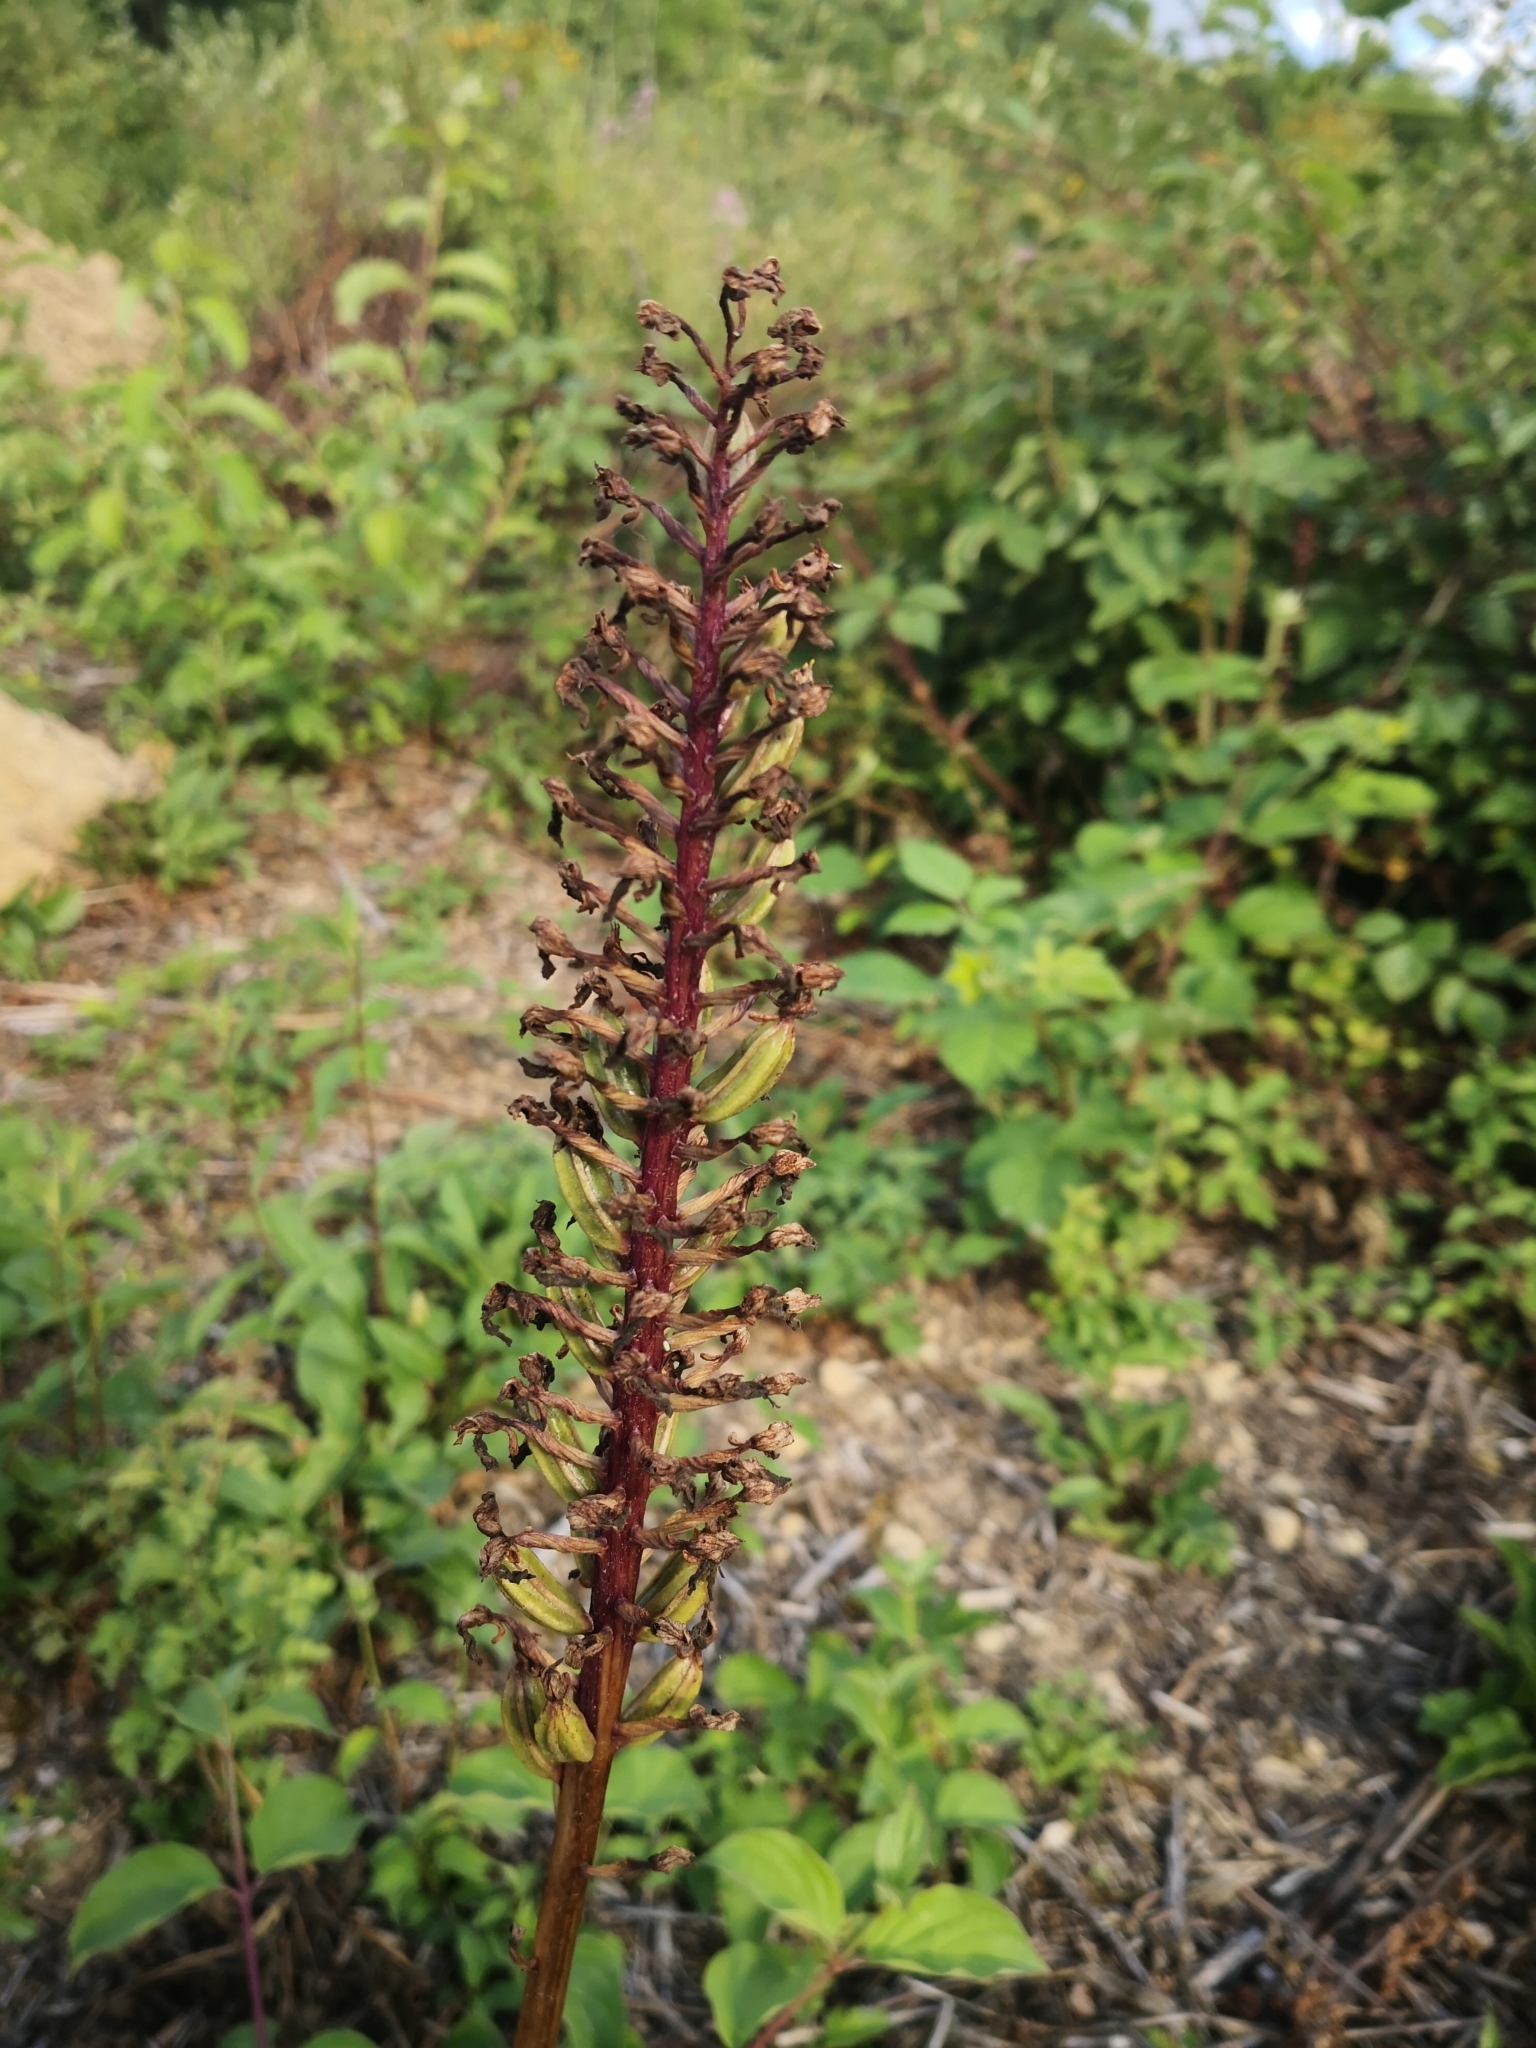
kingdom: Plantae
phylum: Tracheophyta
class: Liliopsida
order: Asparagales
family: Orchidaceae
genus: Orchis
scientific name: Orchis purpurea
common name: Lady orchid
